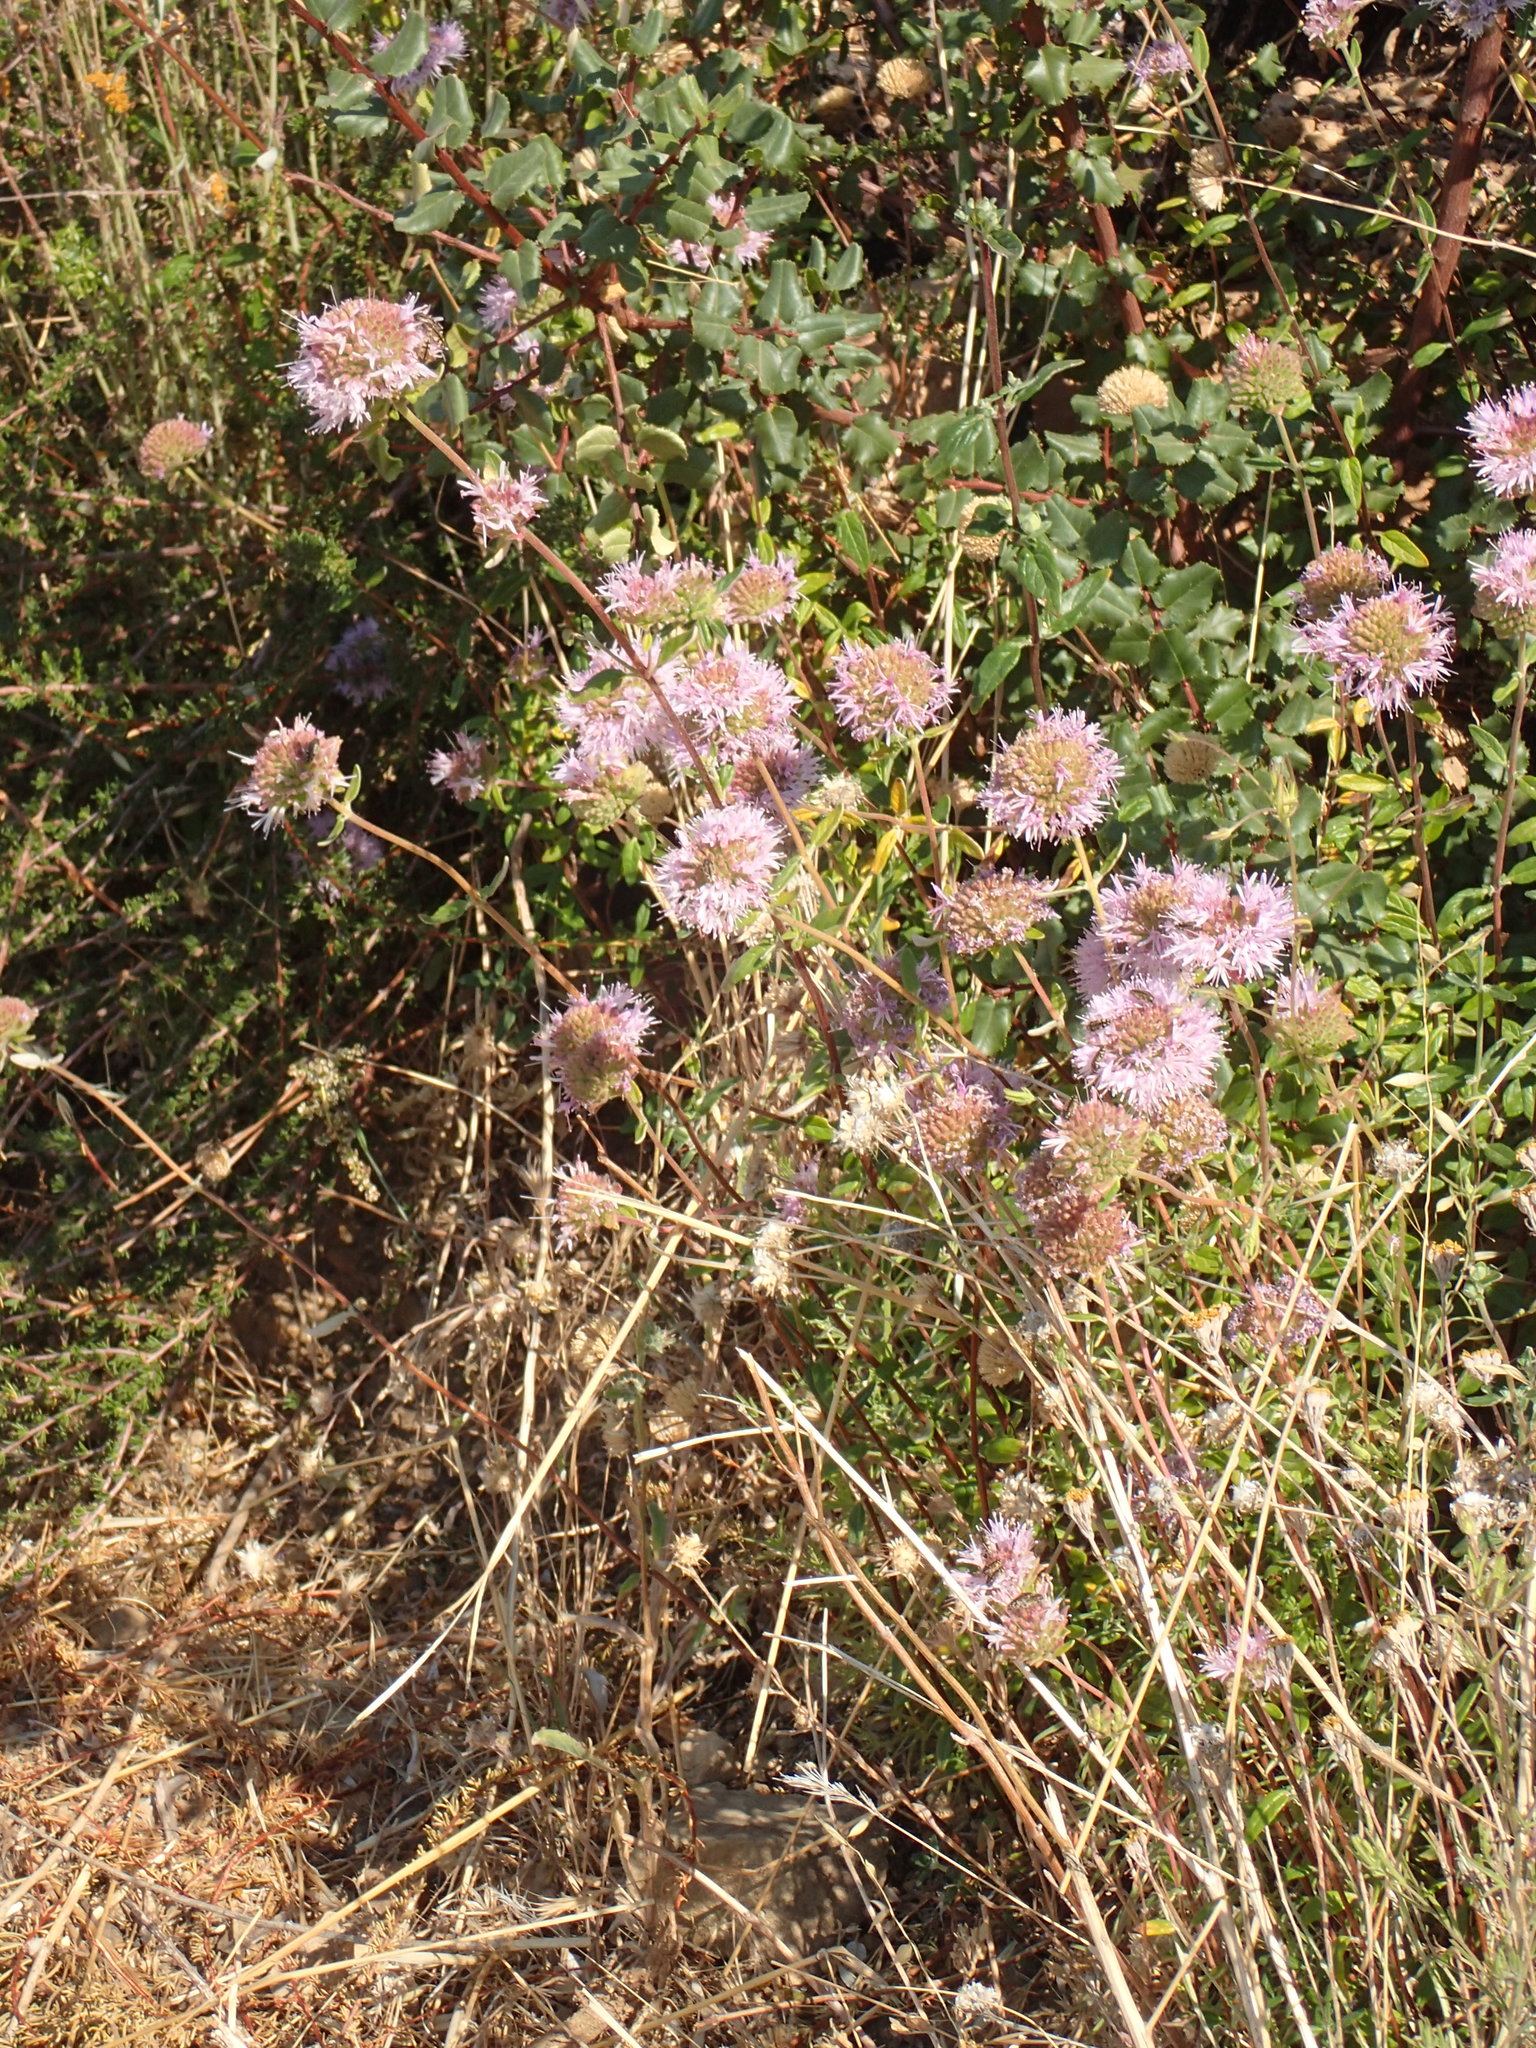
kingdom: Plantae
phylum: Tracheophyta
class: Magnoliopsida
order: Lamiales
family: Lamiaceae
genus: Monardella
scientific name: Monardella hypoleuca
